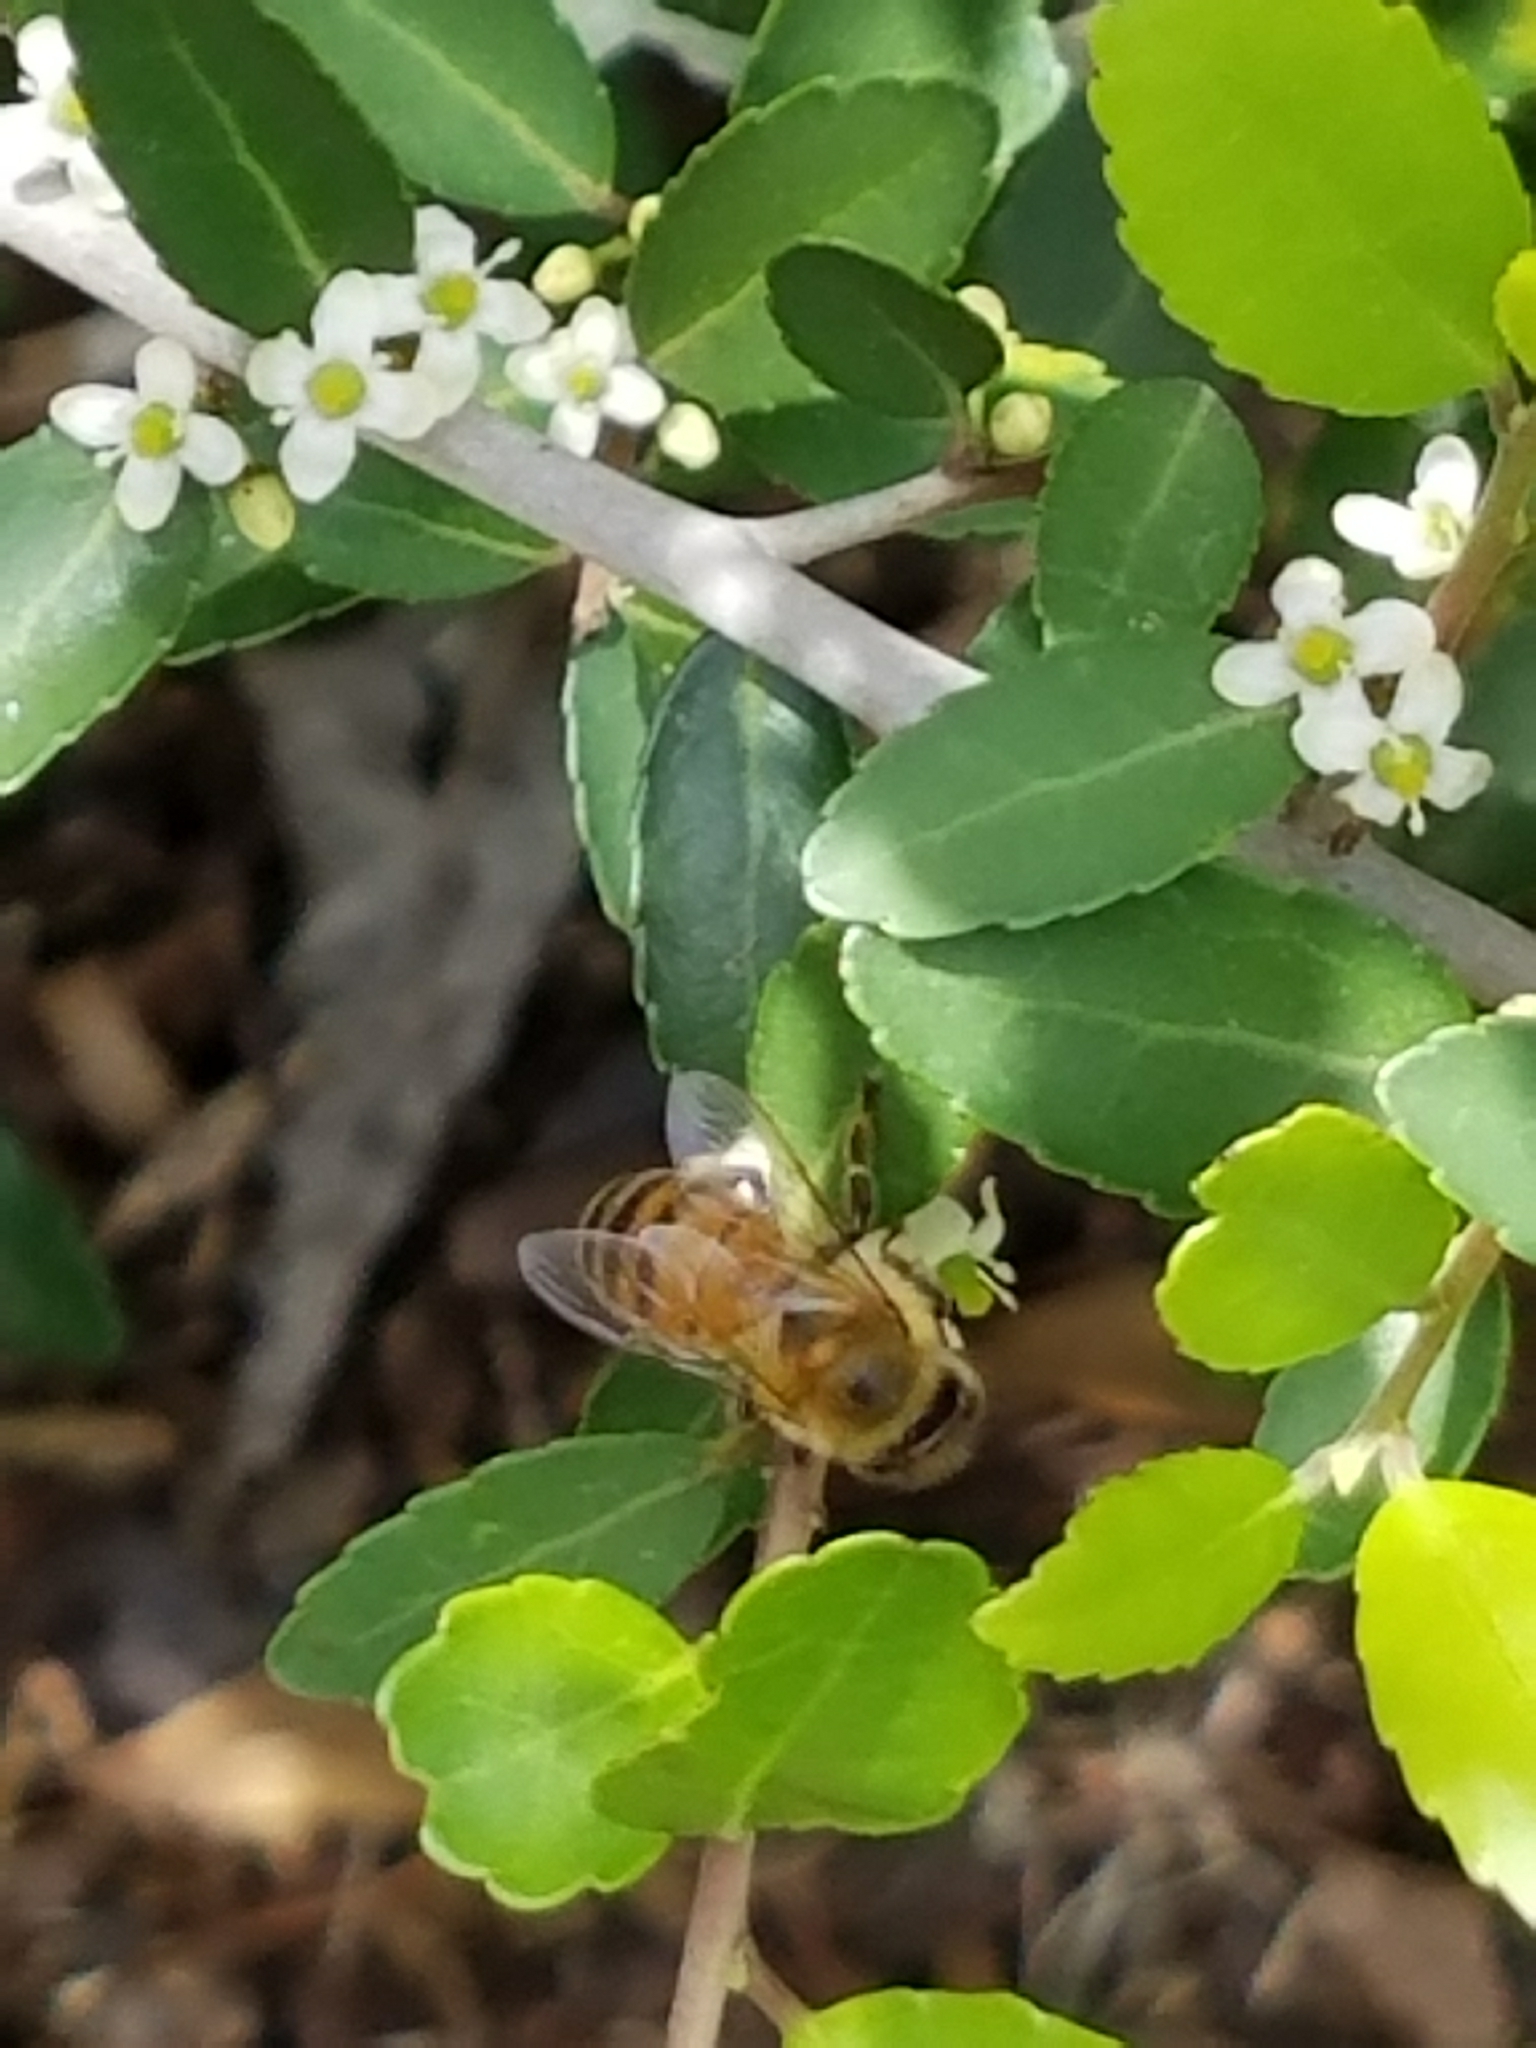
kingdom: Animalia
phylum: Arthropoda
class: Insecta
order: Hymenoptera
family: Apidae
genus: Apis
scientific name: Apis mellifera
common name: Honey bee
